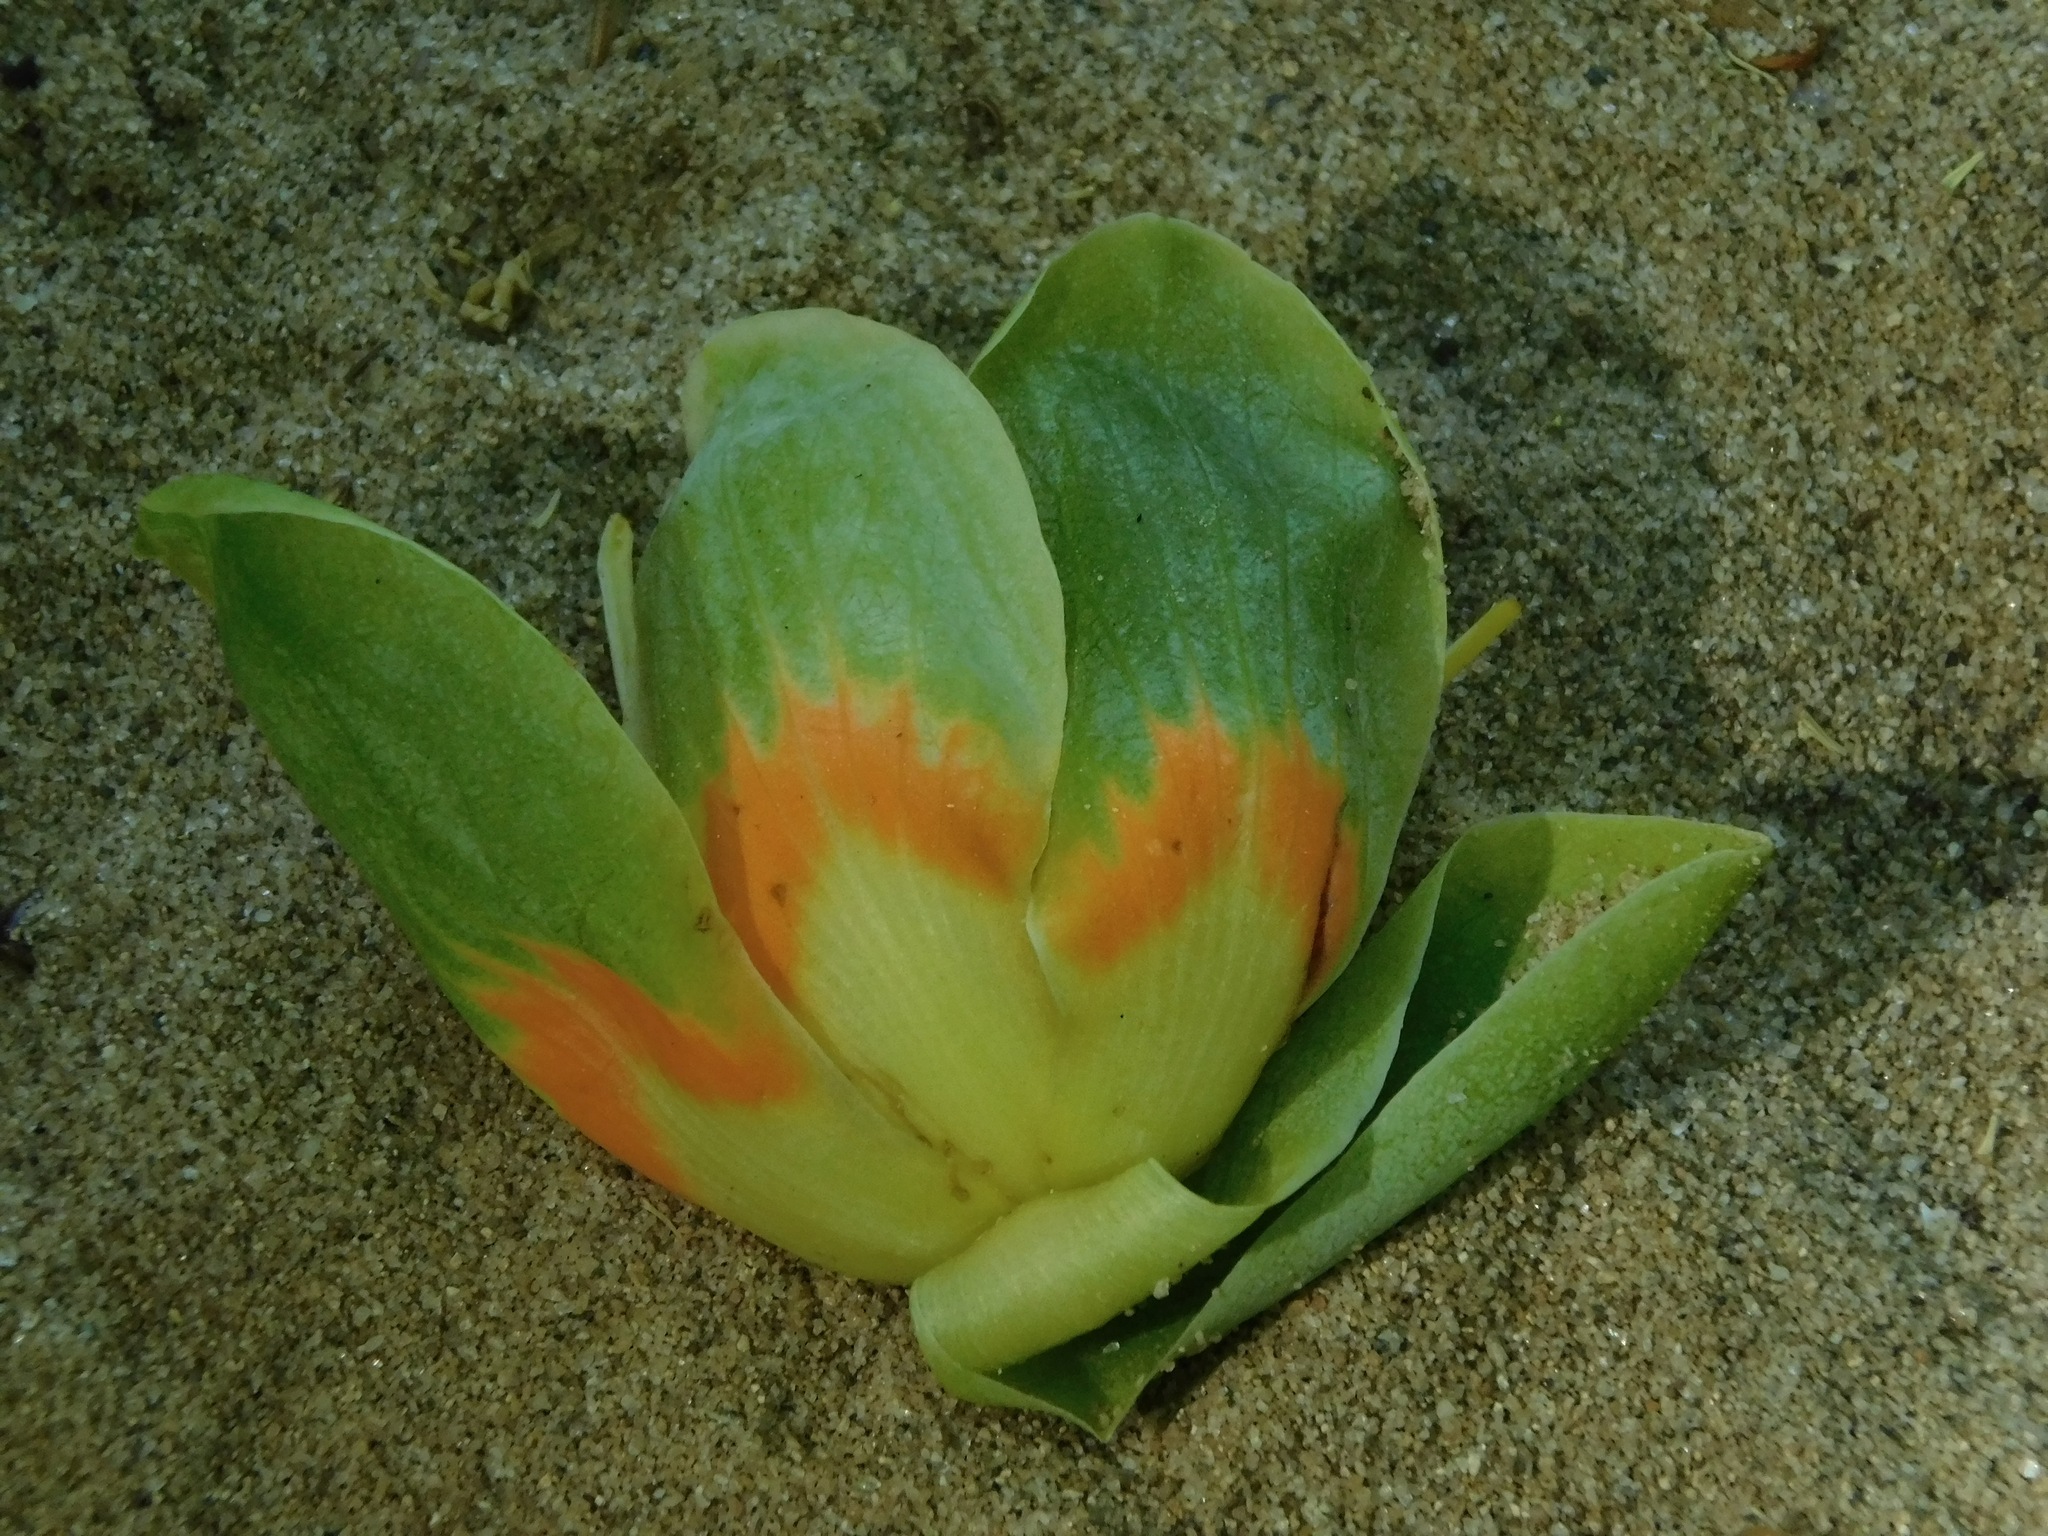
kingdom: Plantae
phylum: Tracheophyta
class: Magnoliopsida
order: Magnoliales
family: Magnoliaceae
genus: Liriodendron
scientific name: Liriodendron tulipifera
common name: Tulip tree
